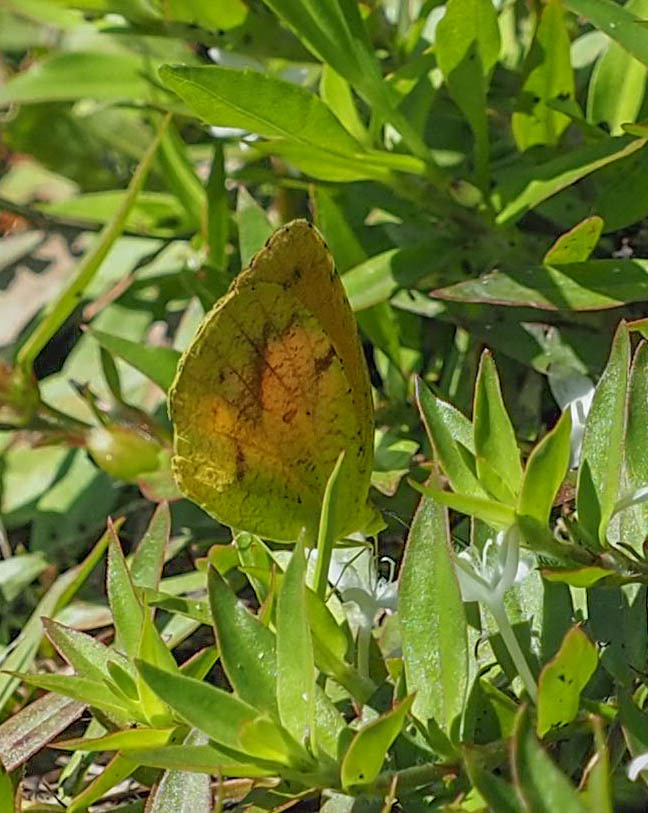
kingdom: Animalia
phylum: Arthropoda
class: Insecta
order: Lepidoptera
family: Pieridae
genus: Abaeis
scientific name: Abaeis nicippe
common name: Sleepy orange
